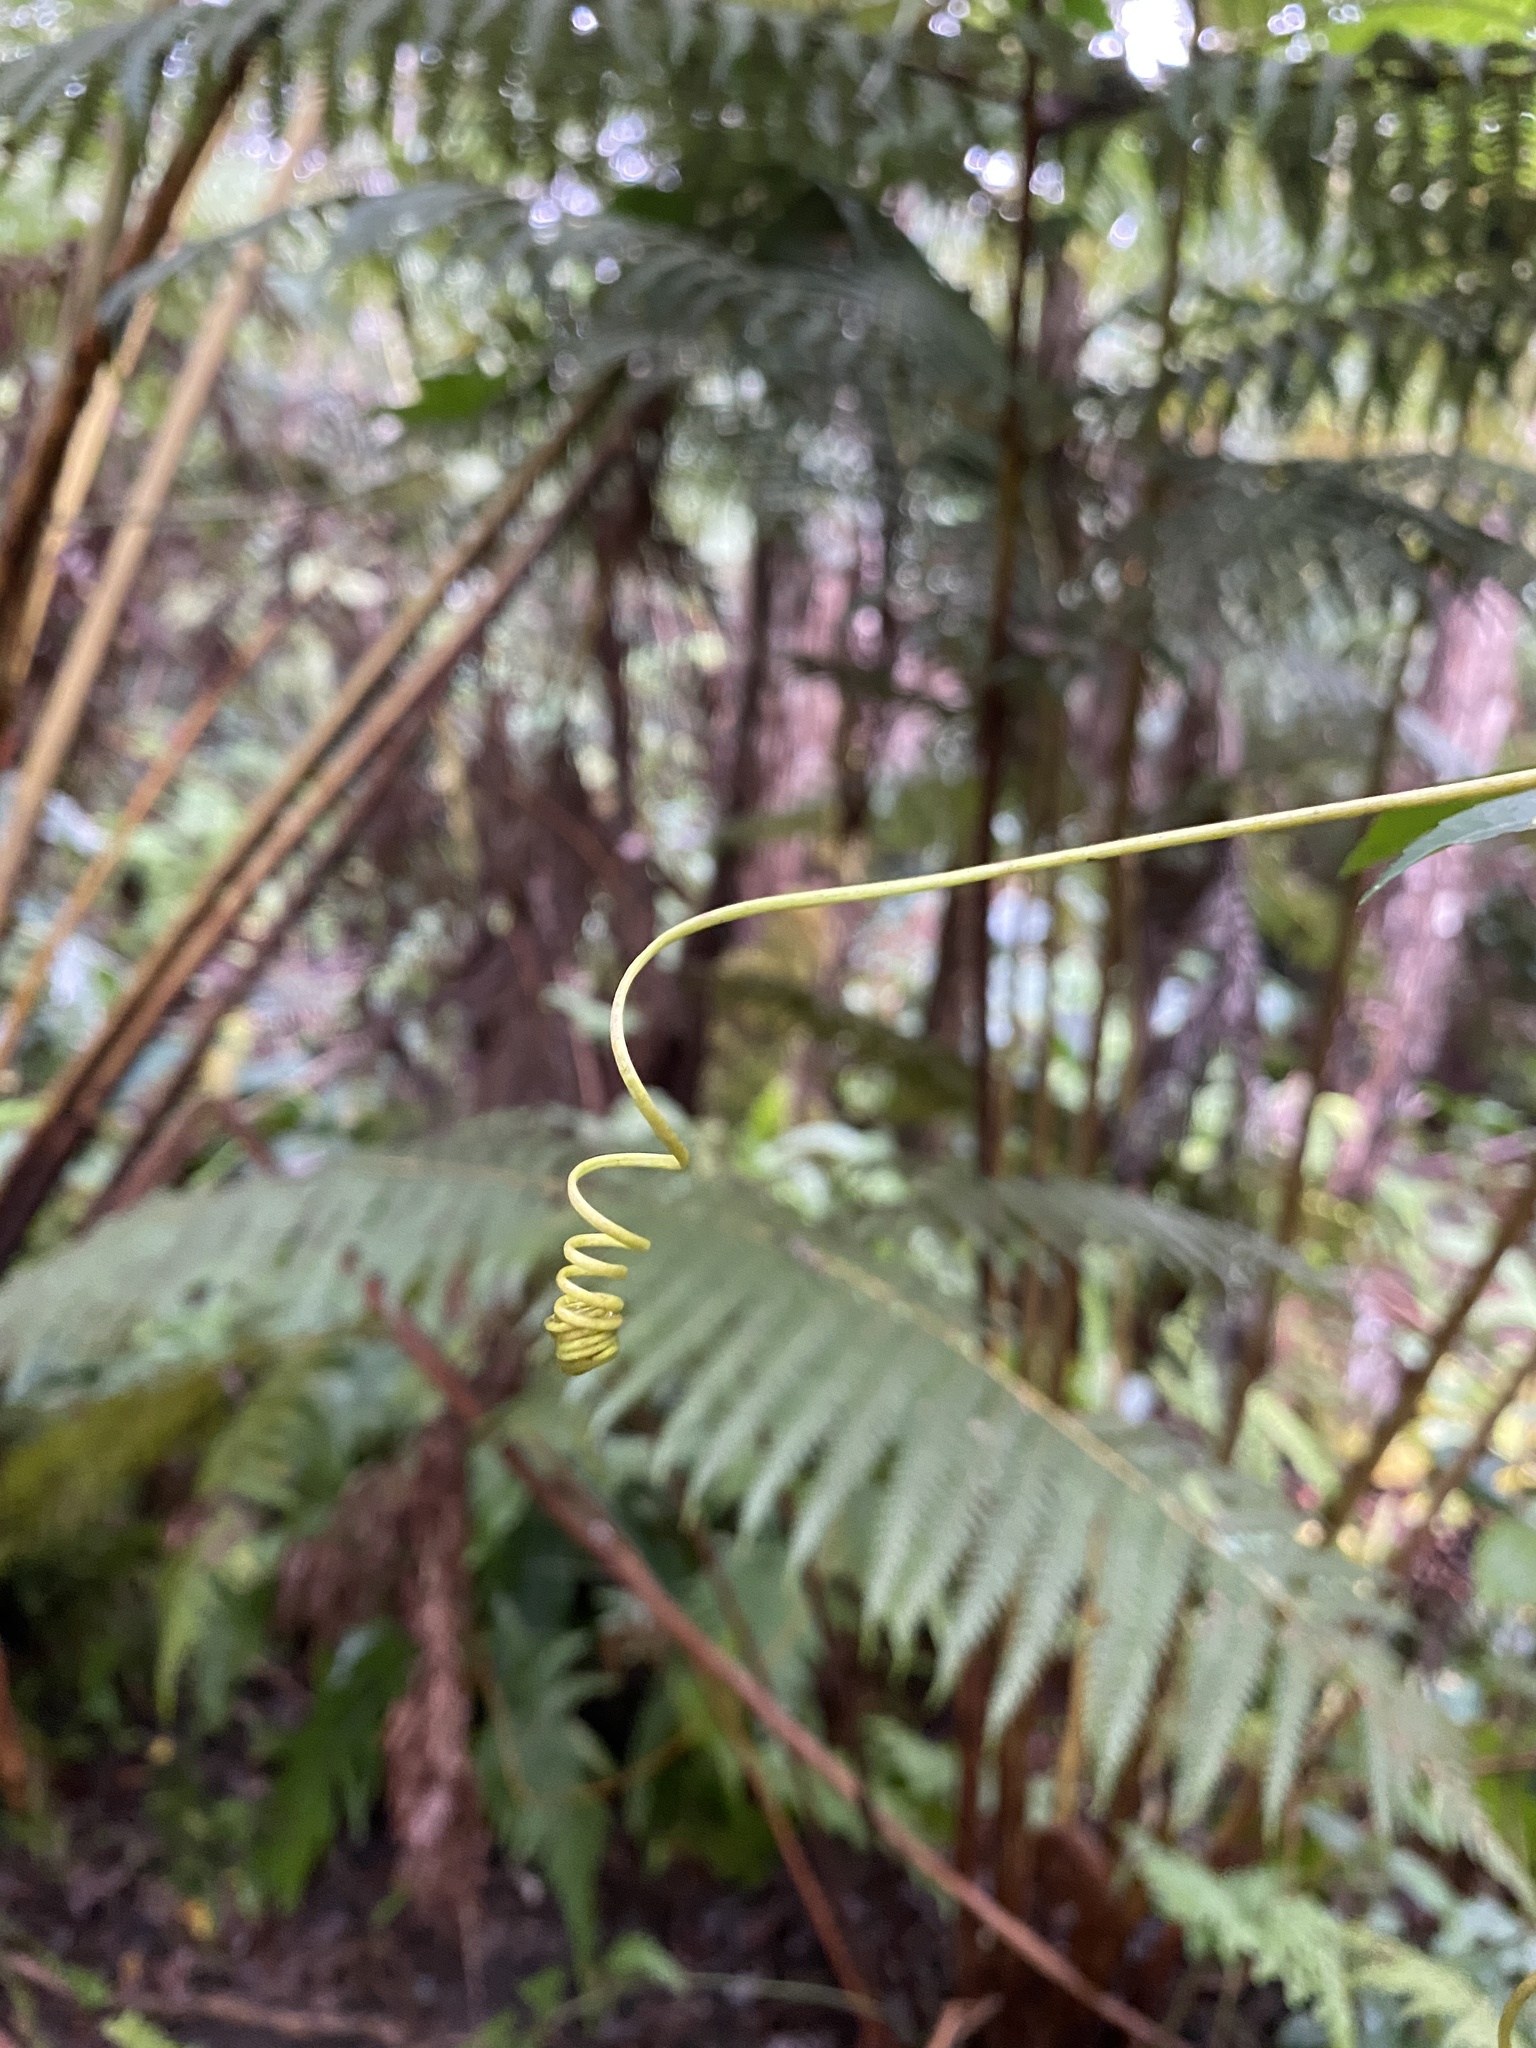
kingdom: Plantae
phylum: Tracheophyta
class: Magnoliopsida
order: Malpighiales
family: Passifloraceae
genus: Passiflora
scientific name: Passiflora edulis
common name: Purple granadilla
